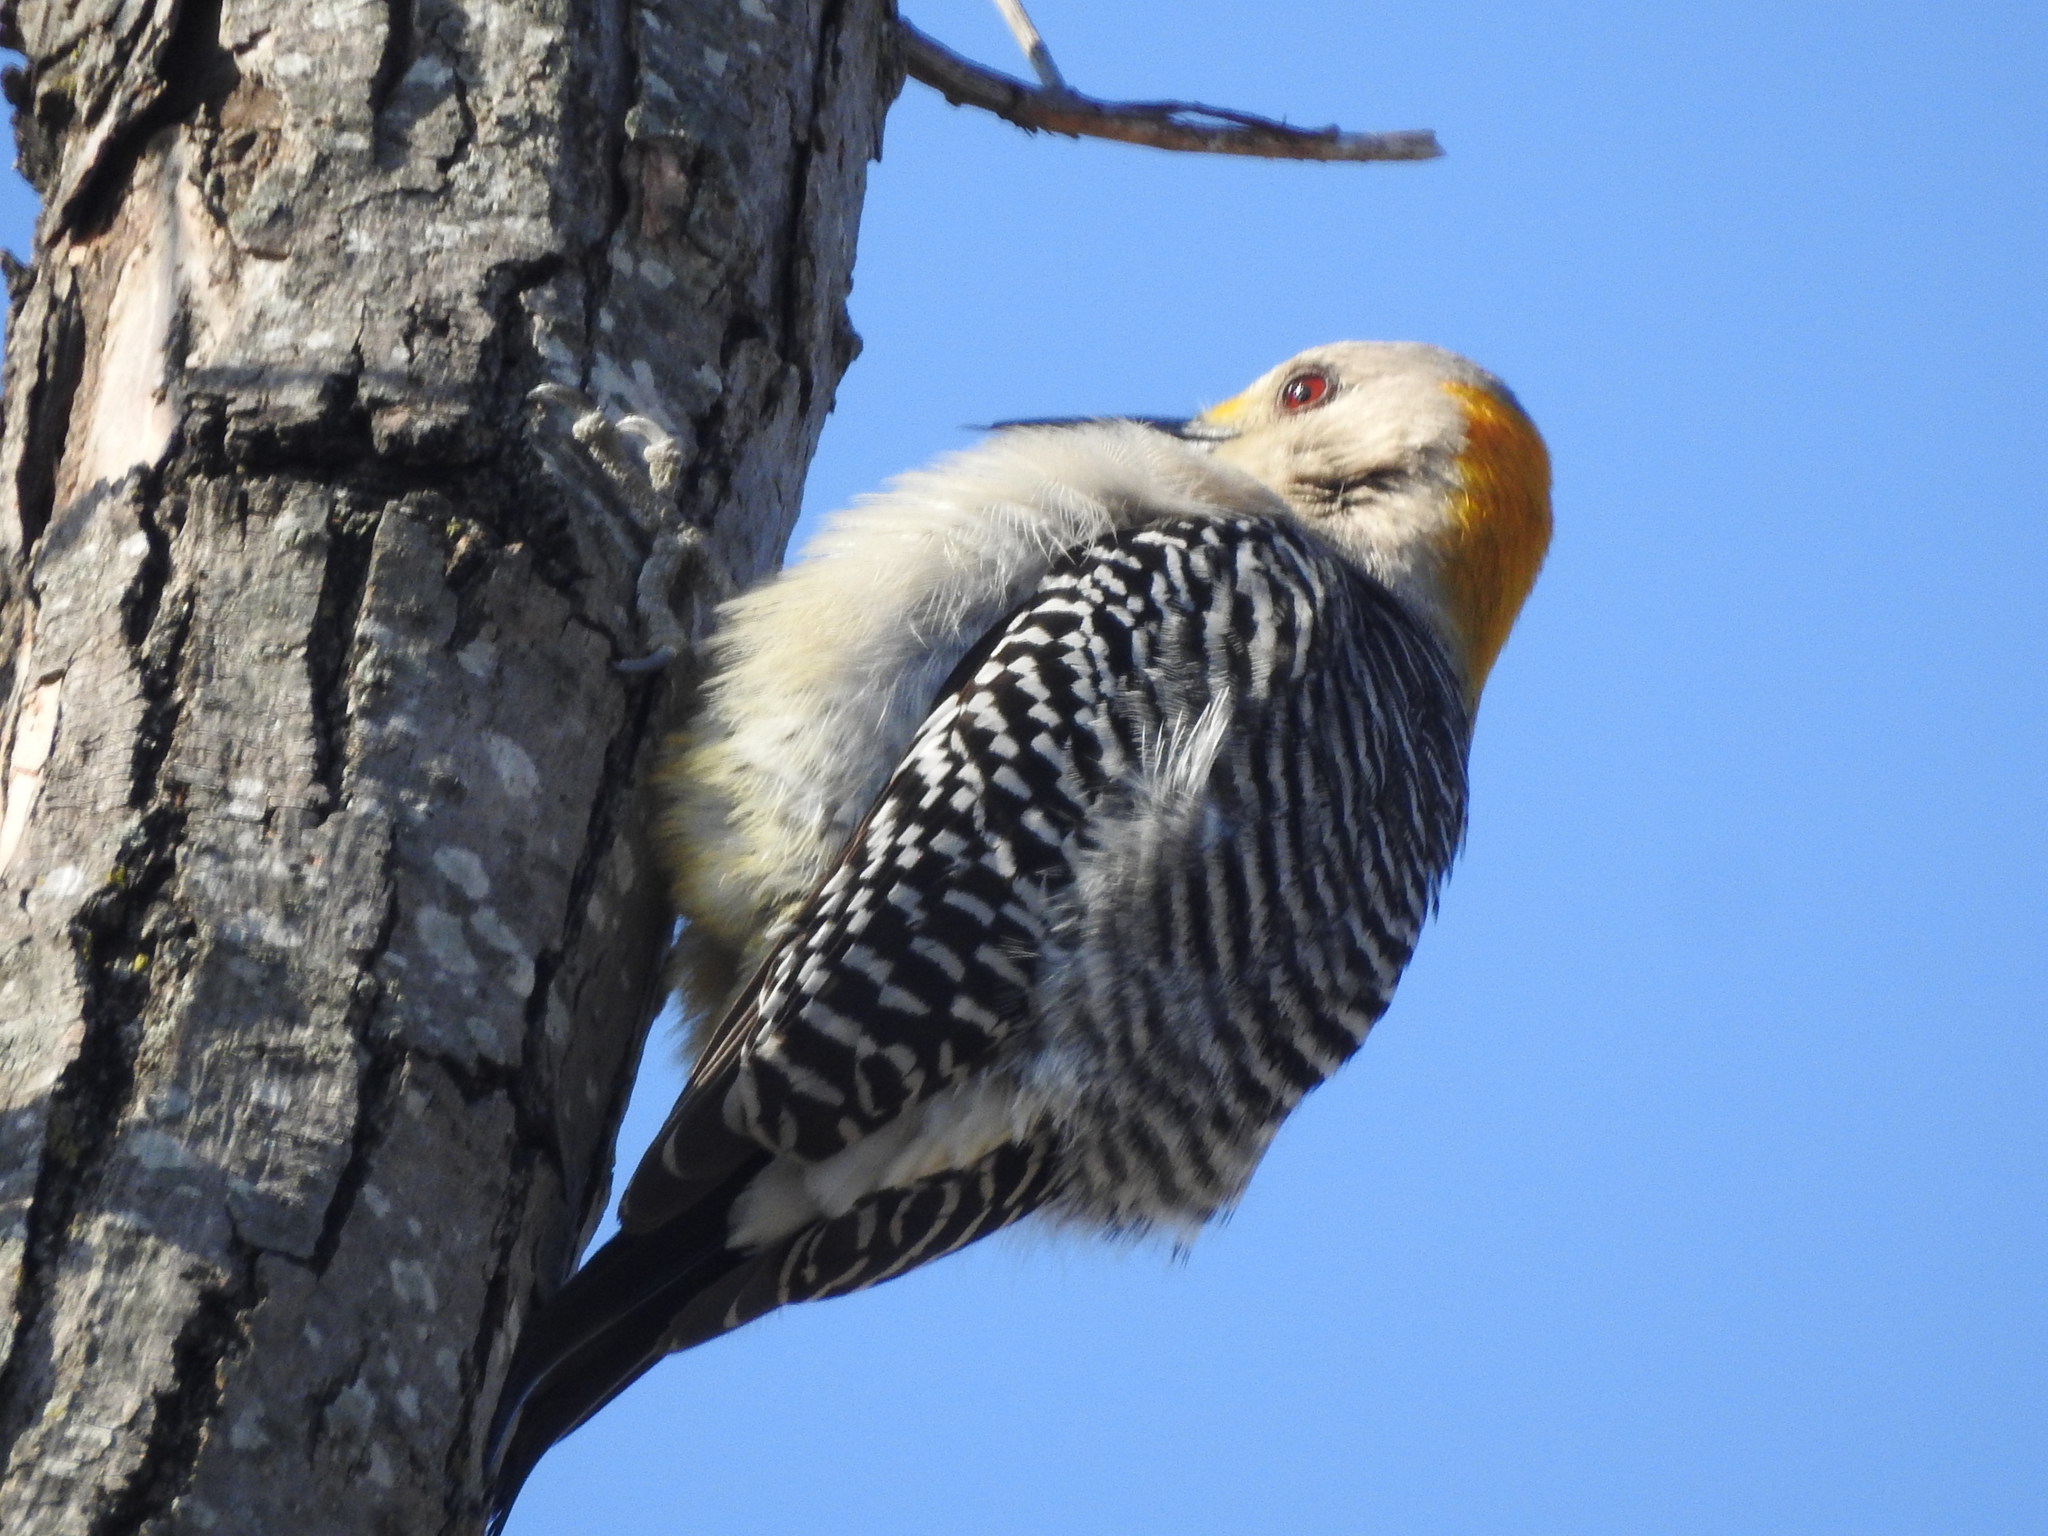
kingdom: Animalia
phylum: Chordata
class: Aves
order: Piciformes
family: Picidae
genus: Melanerpes
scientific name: Melanerpes aurifrons
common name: Golden-fronted woodpecker
